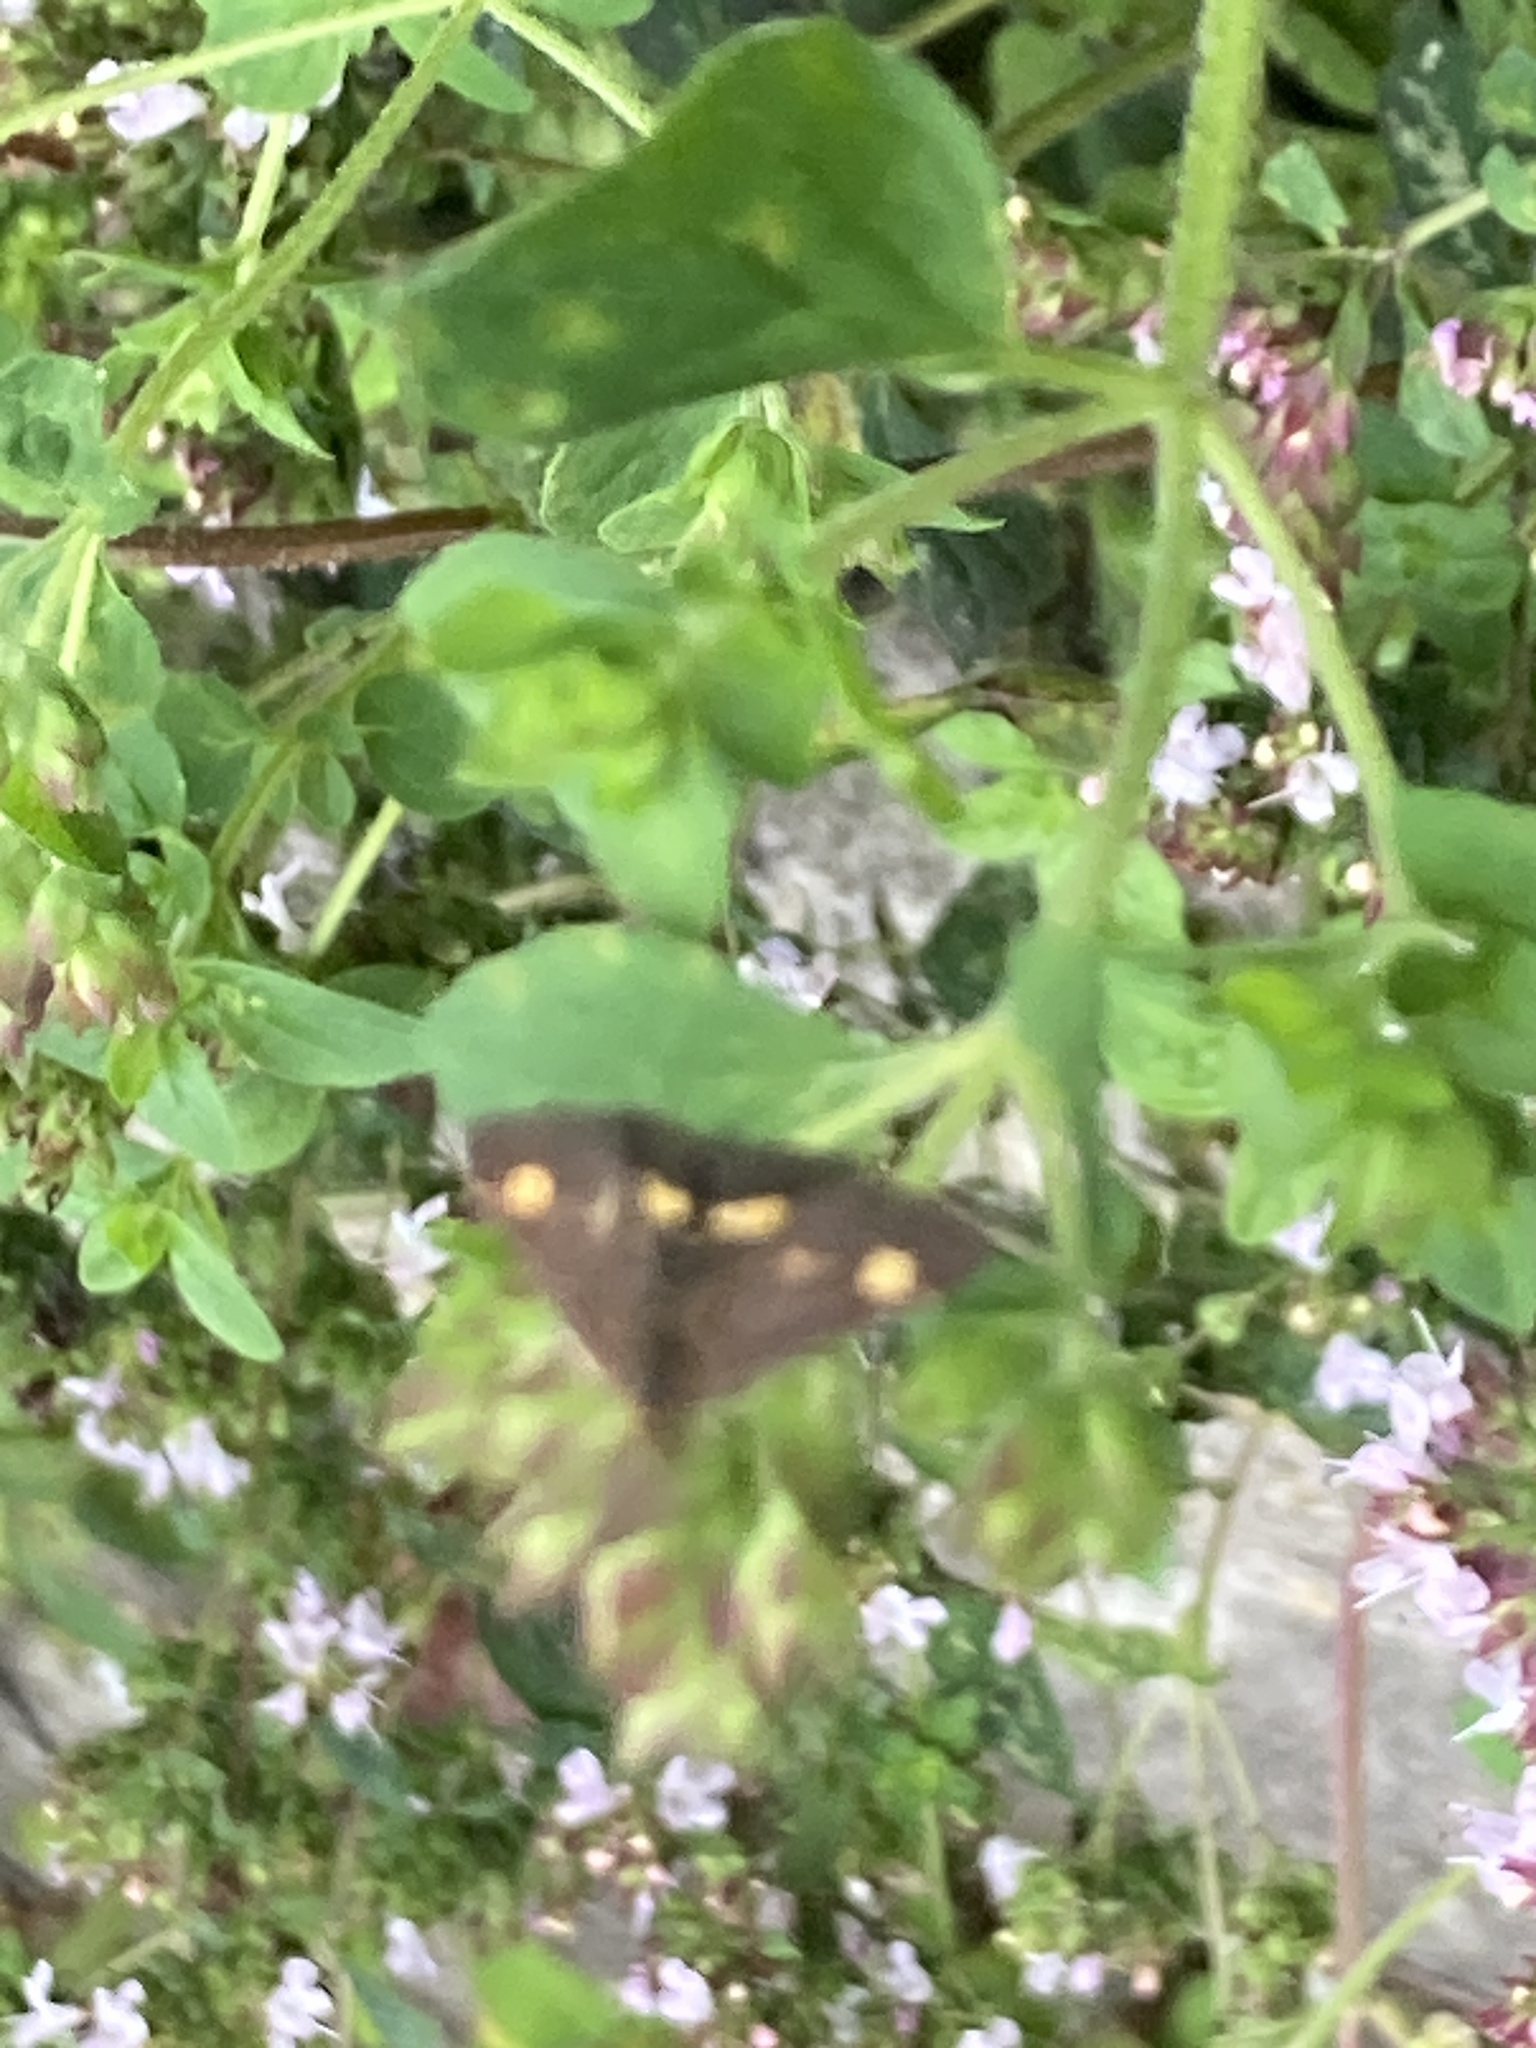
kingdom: Animalia
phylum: Arthropoda
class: Insecta
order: Lepidoptera
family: Crambidae
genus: Pyrausta
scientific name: Pyrausta aurata
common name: Small purple & gold
